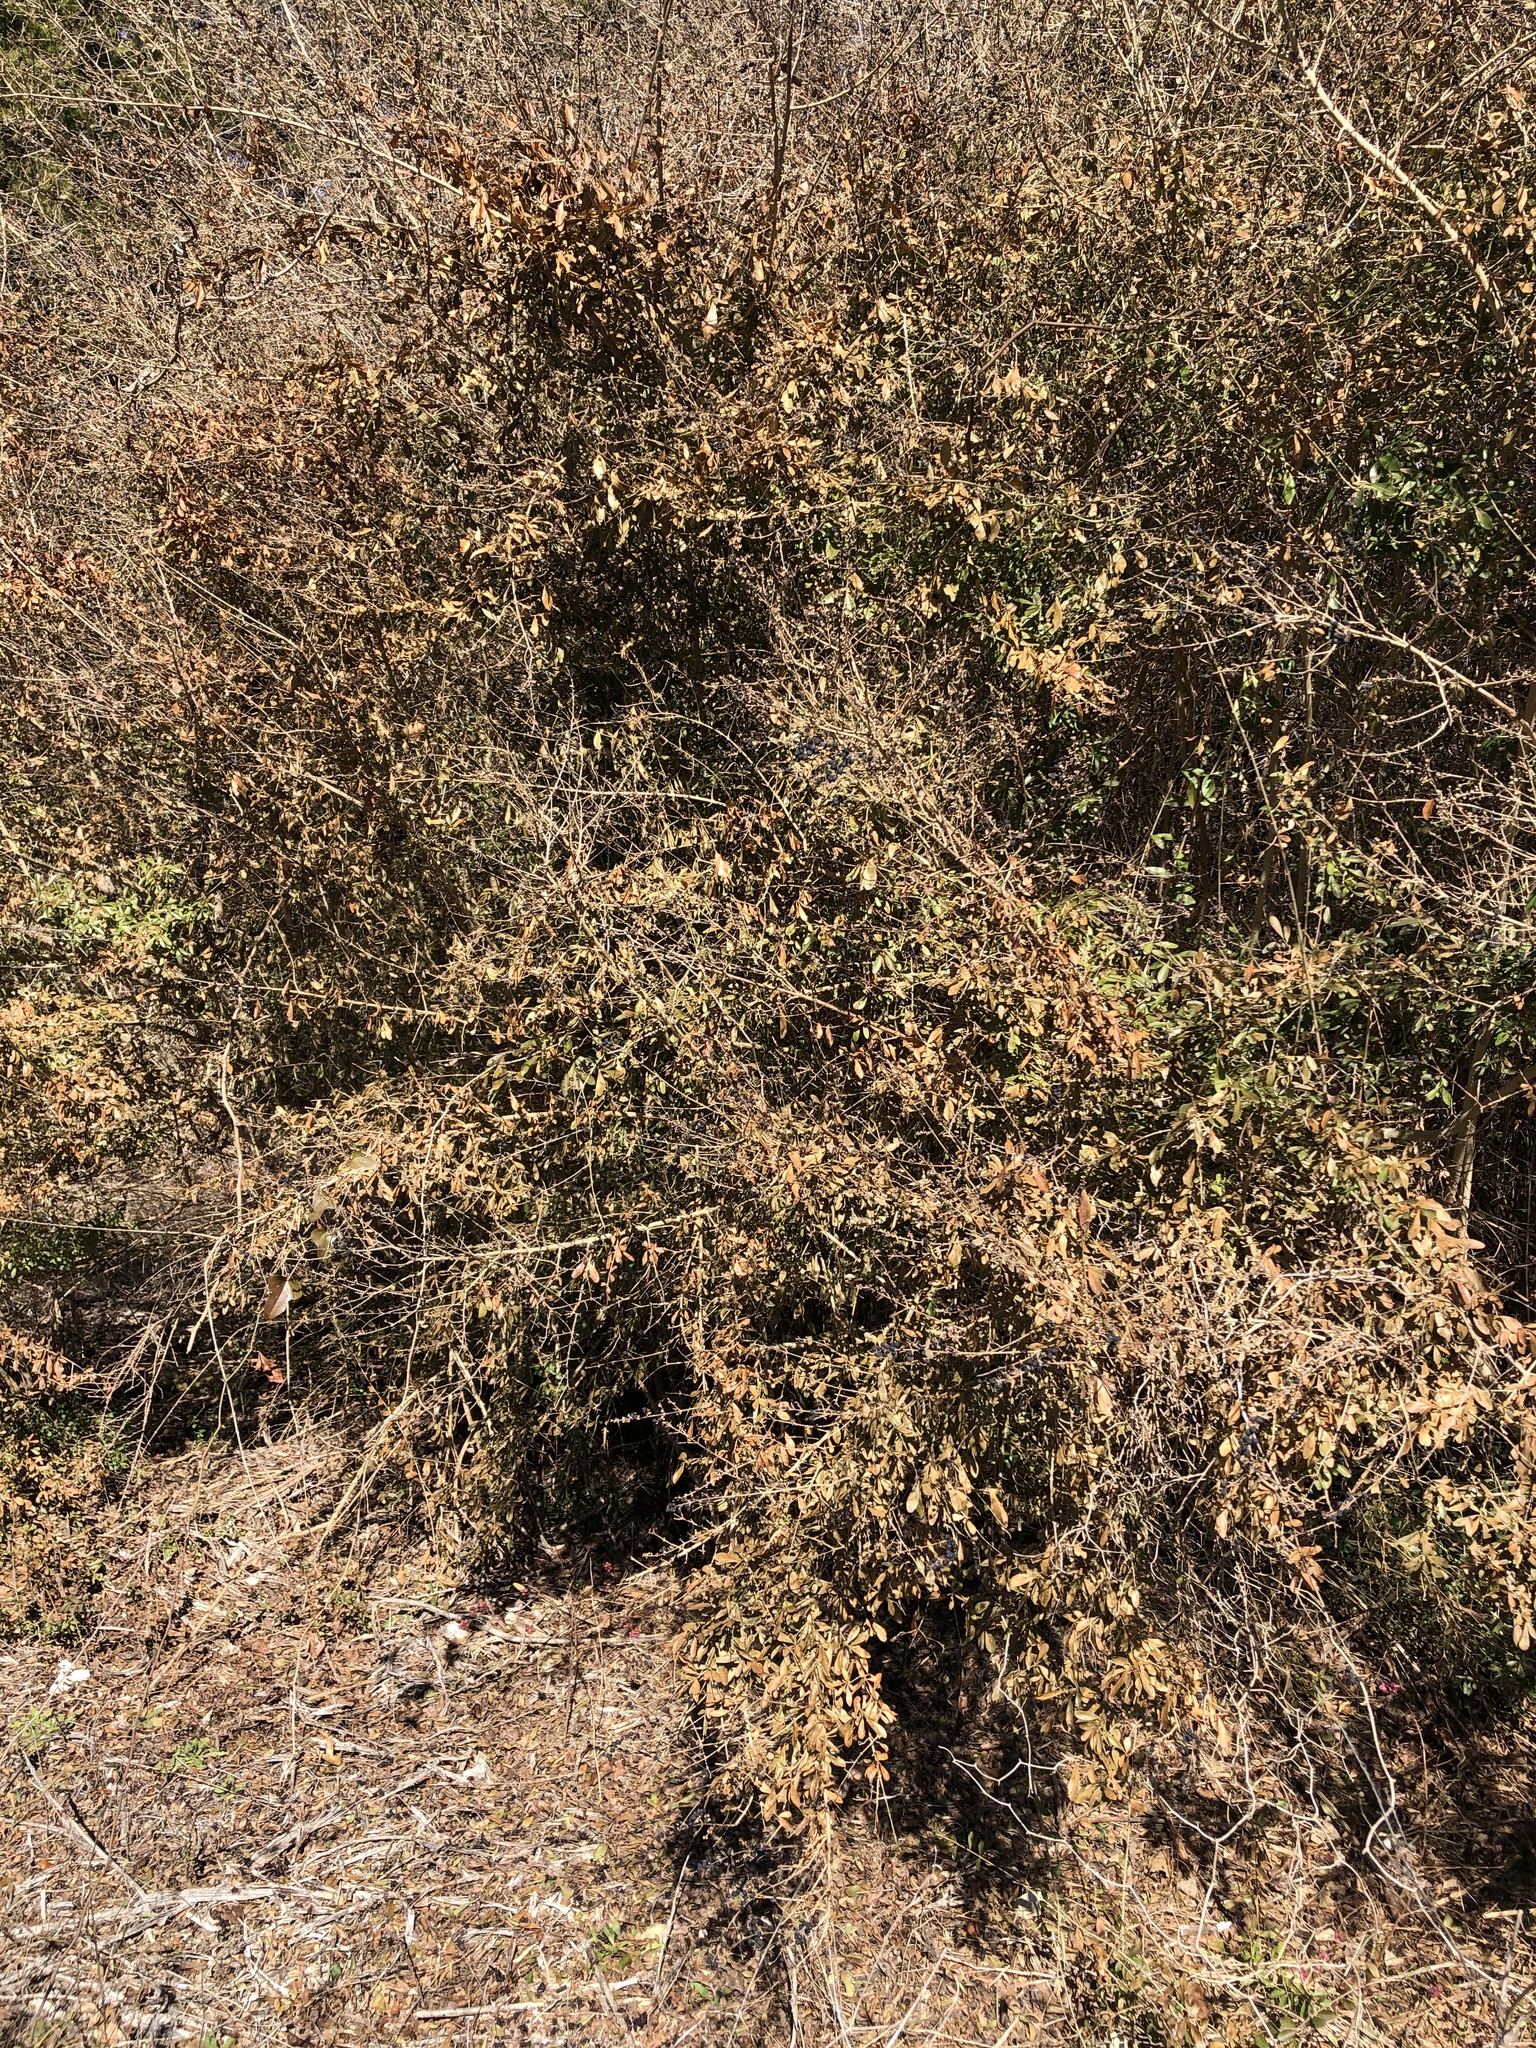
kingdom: Plantae
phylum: Tracheophyta
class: Magnoliopsida
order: Lamiales
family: Oleaceae
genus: Ligustrum
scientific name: Ligustrum quihoui
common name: Waxyleaf privet
